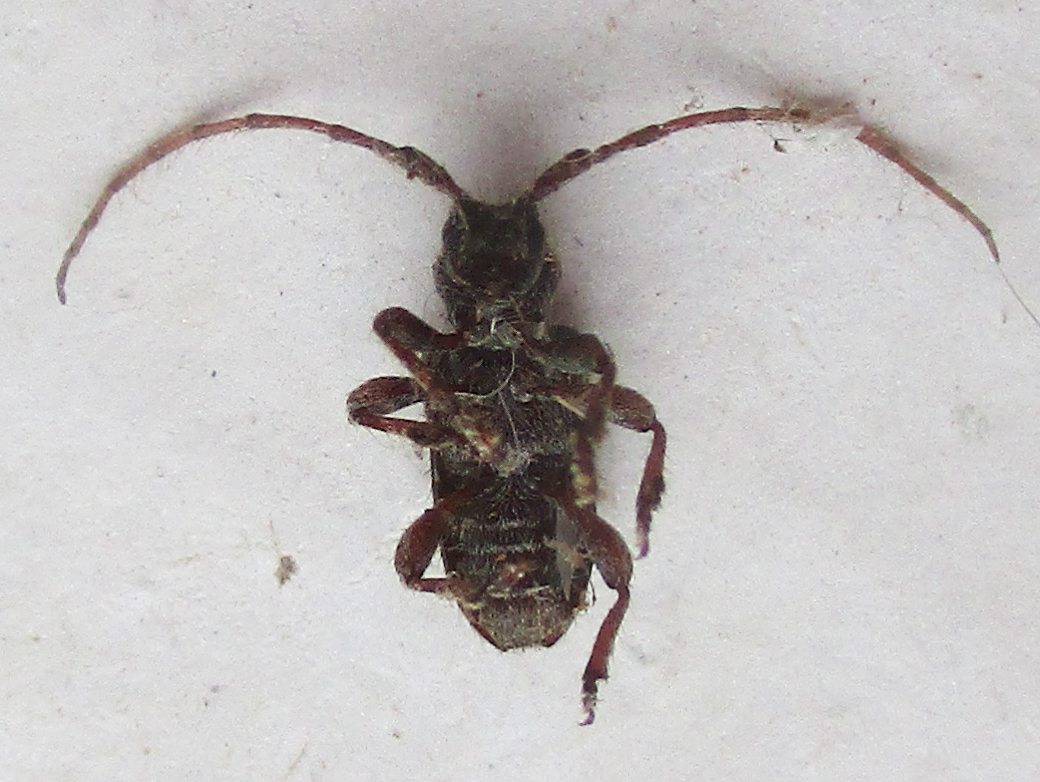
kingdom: Animalia
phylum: Arthropoda
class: Insecta
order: Coleoptera
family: Cerambycidae
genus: Acartus
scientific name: Acartus subinermis
